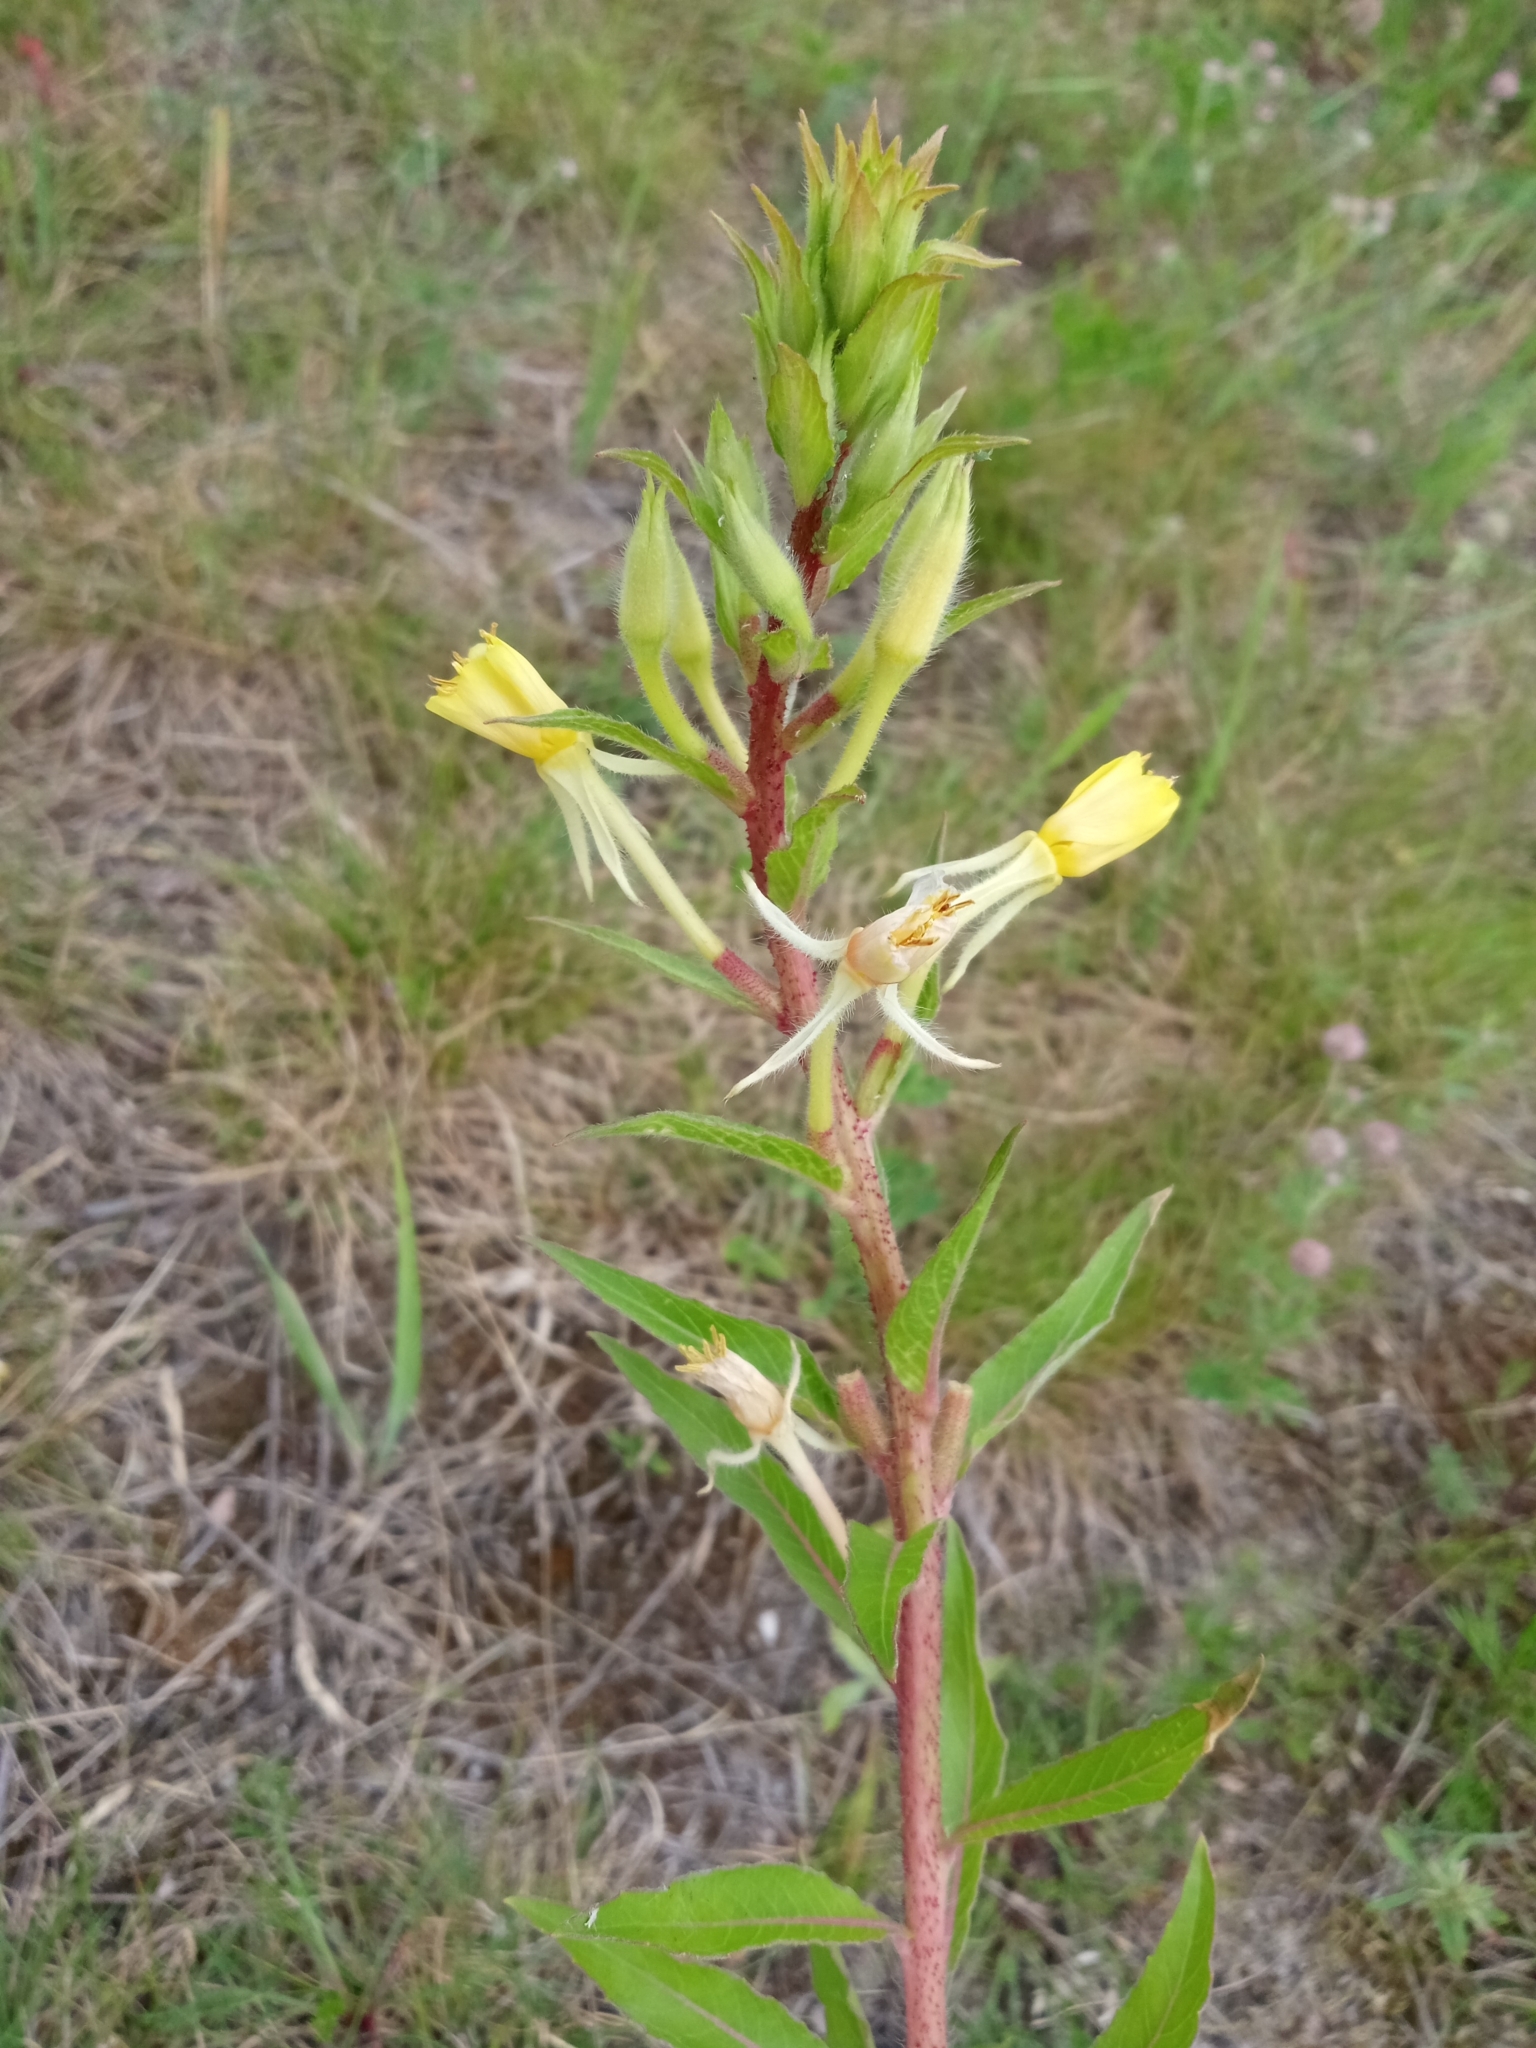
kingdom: Plantae
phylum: Tracheophyta
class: Magnoliopsida
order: Myrtales
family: Onagraceae
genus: Oenothera
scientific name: Oenothera rubricaulis
